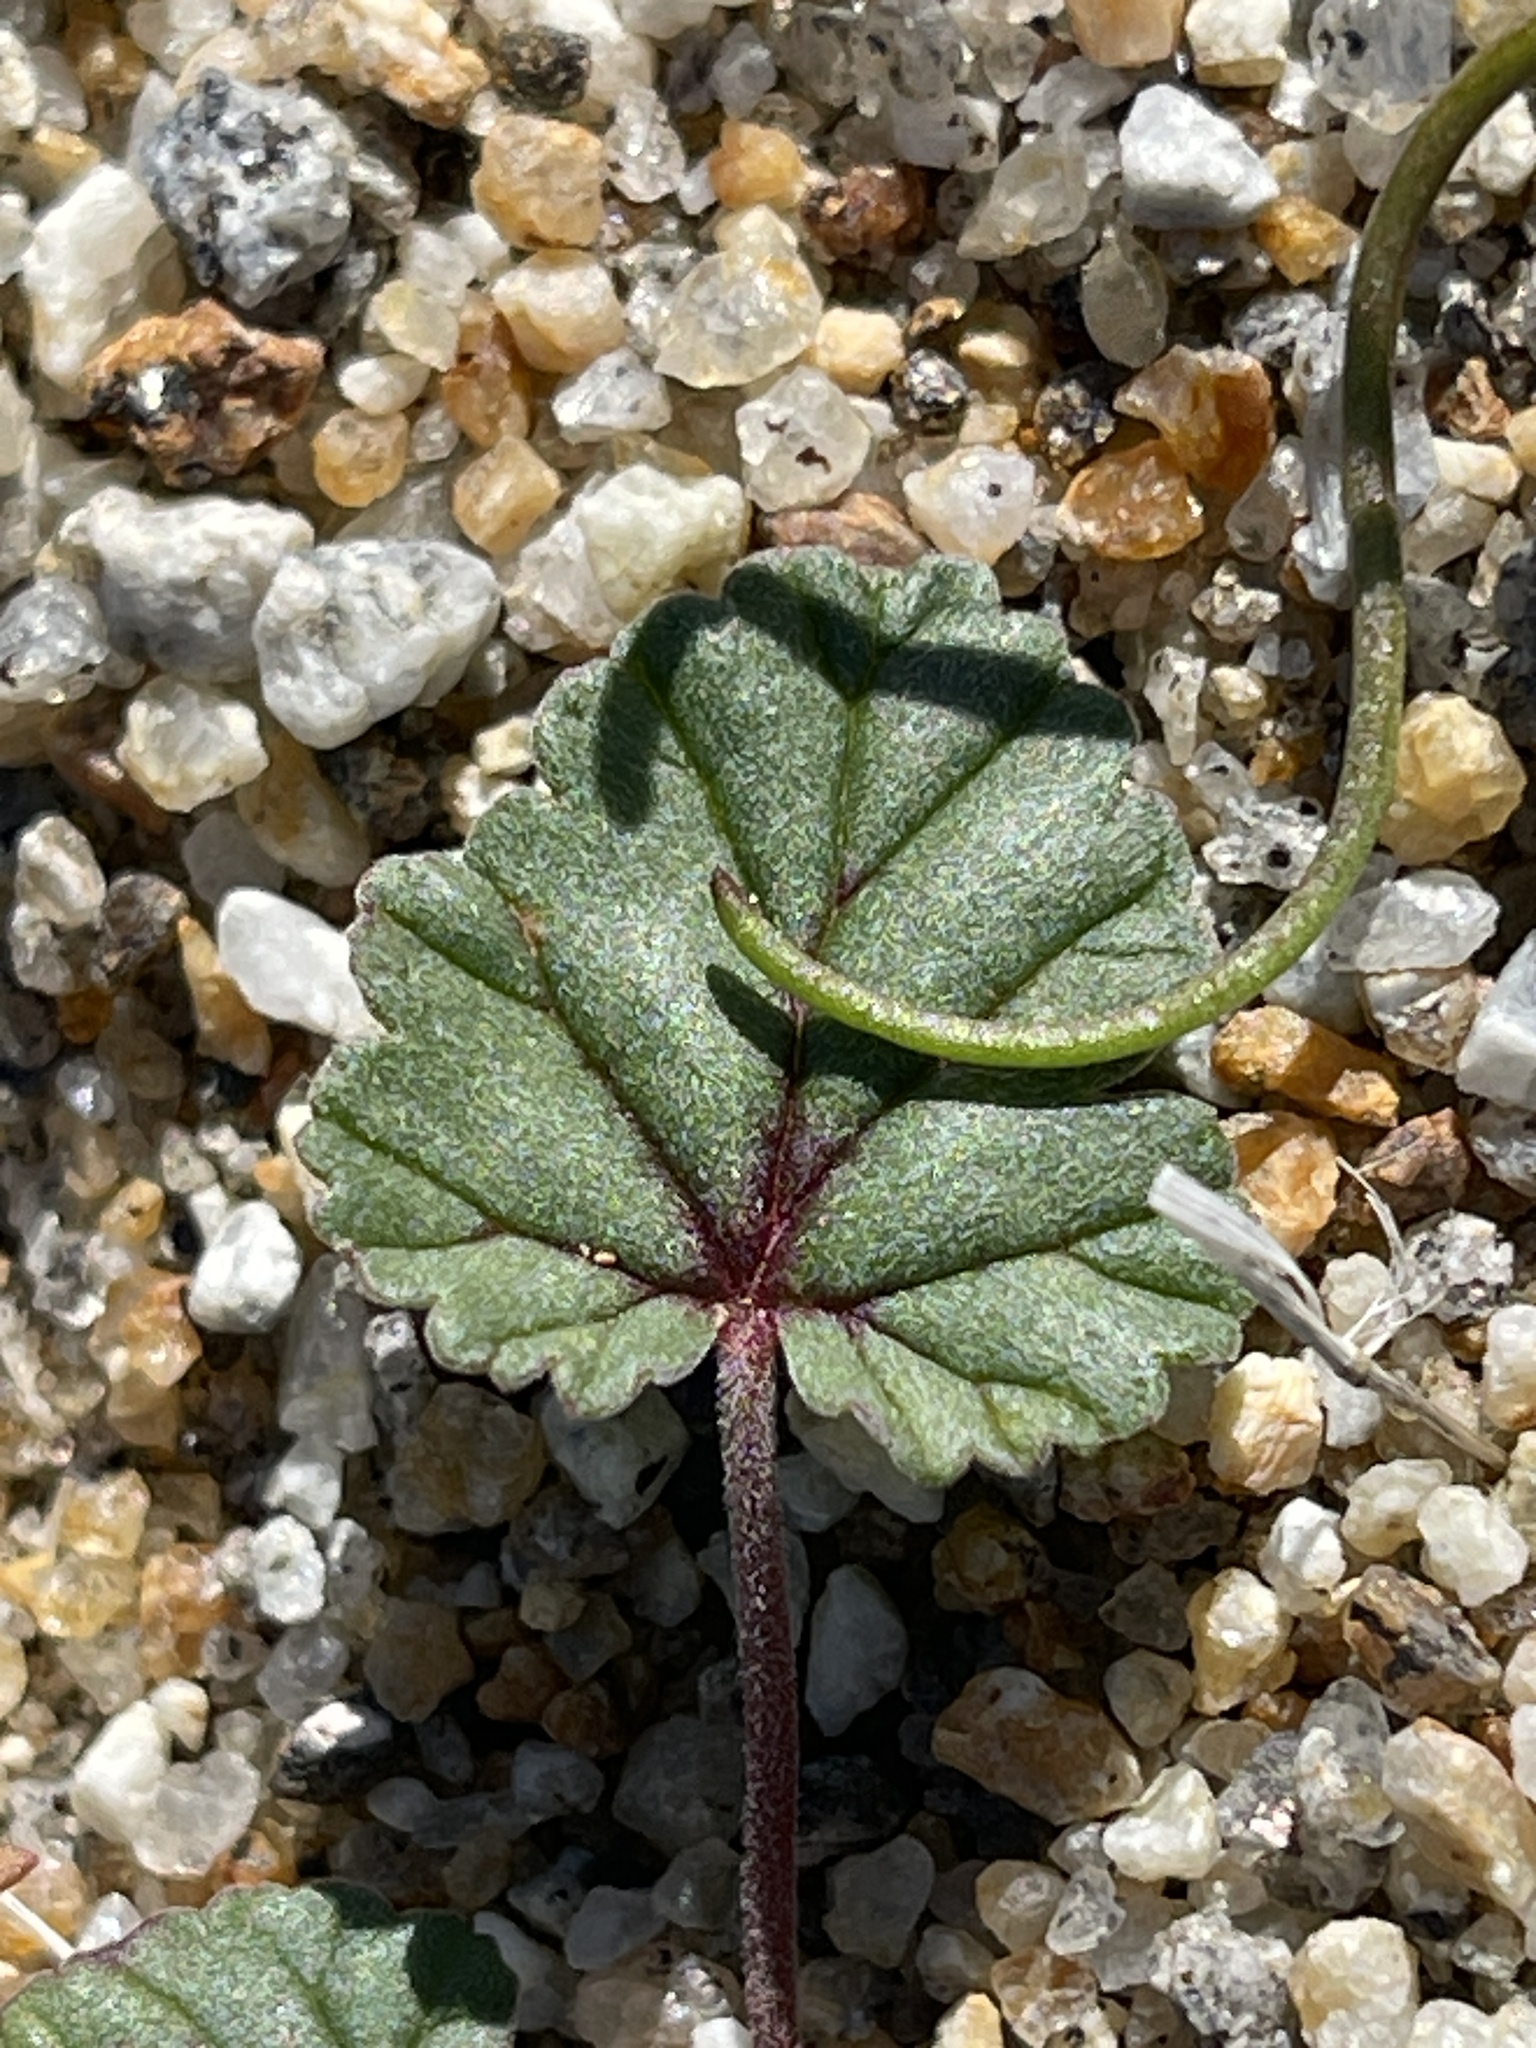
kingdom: Plantae
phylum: Tracheophyta
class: Magnoliopsida
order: Geraniales
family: Geraniaceae
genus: Erodium
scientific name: Erodium texanum
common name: Texas stork's-bill
